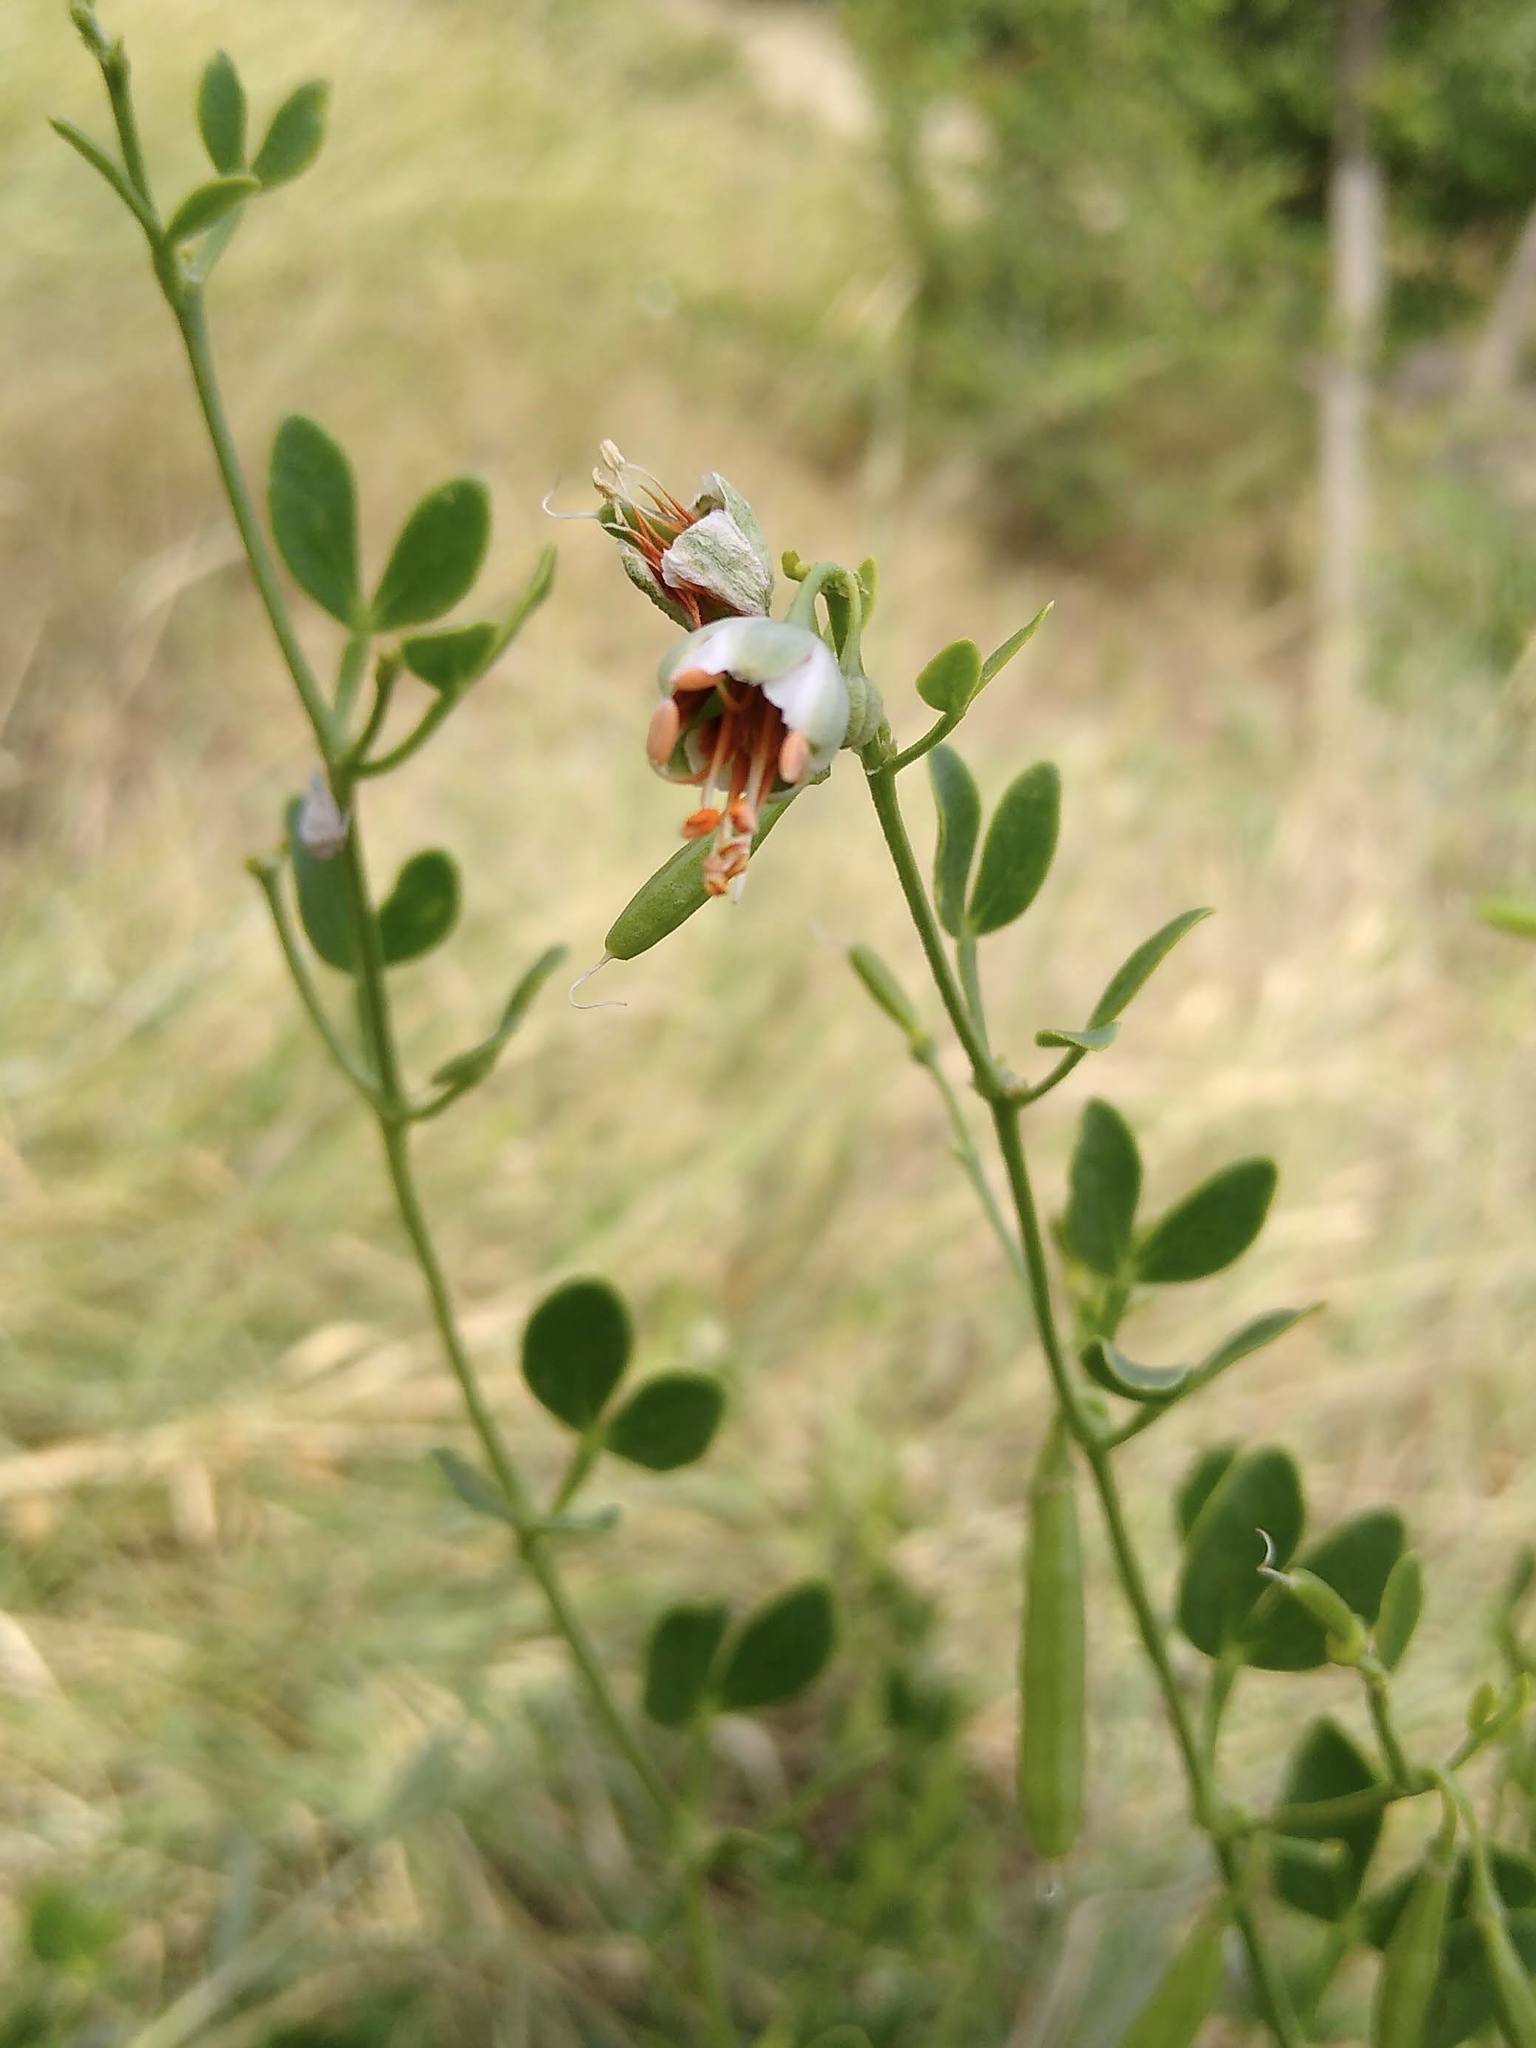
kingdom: Plantae
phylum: Tracheophyta
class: Magnoliopsida
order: Zygophyllales
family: Zygophyllaceae
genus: Zygophyllum
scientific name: Zygophyllum fabago
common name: Syrian beancaper
